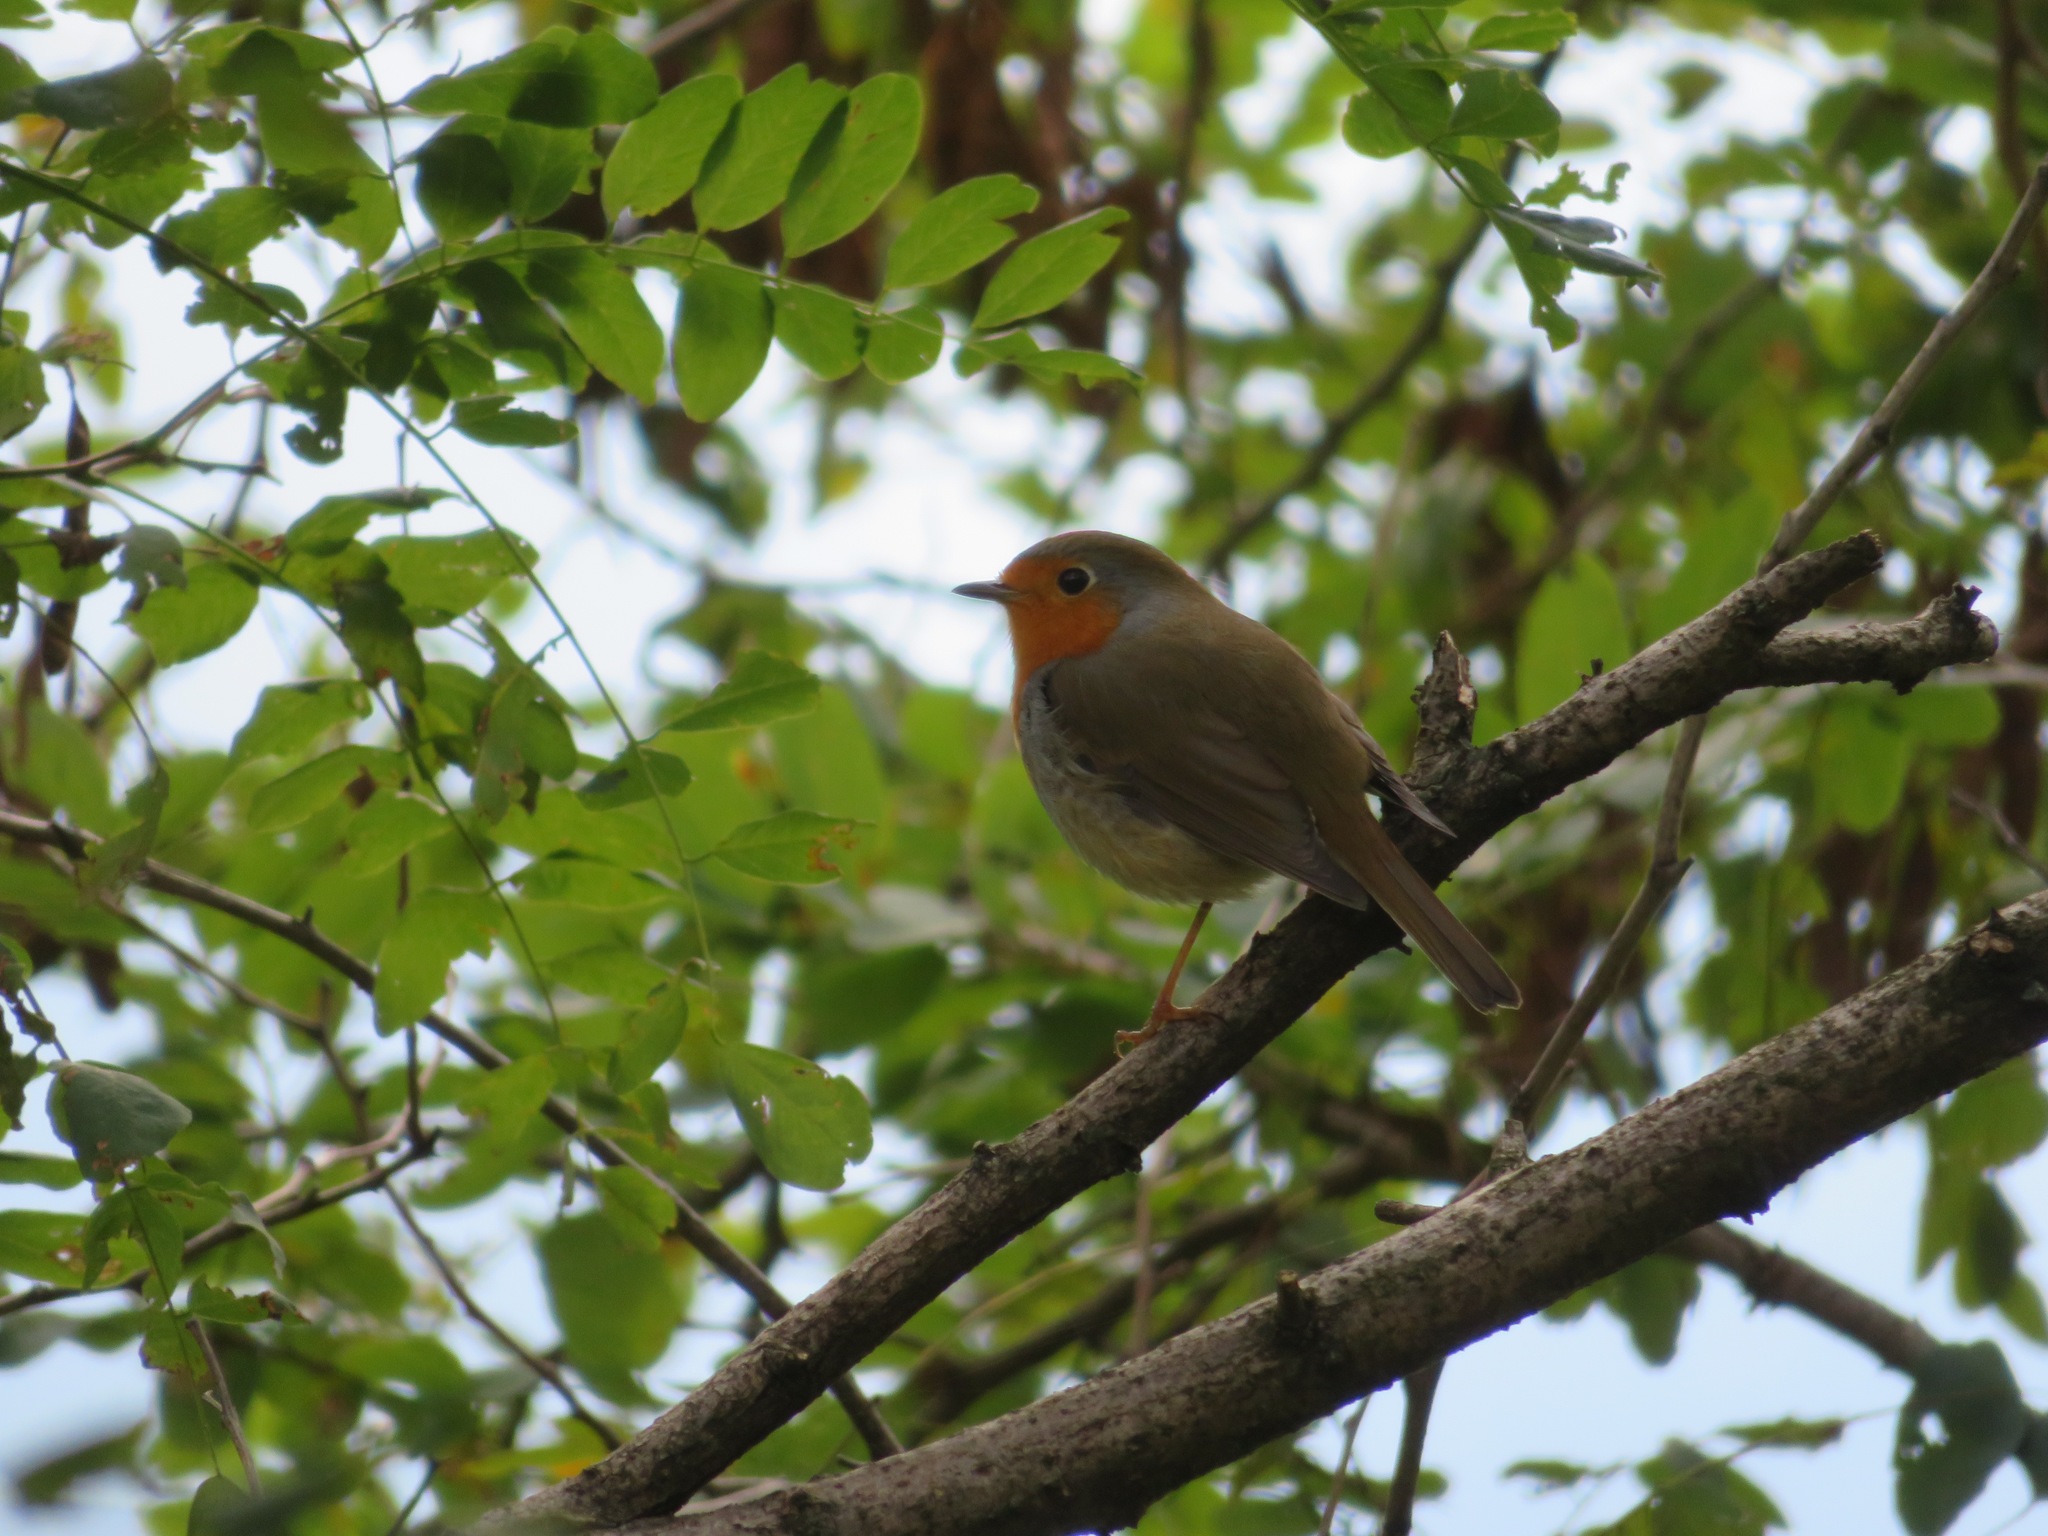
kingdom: Animalia
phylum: Chordata
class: Aves
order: Passeriformes
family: Muscicapidae
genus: Erithacus
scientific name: Erithacus rubecula
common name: European robin
